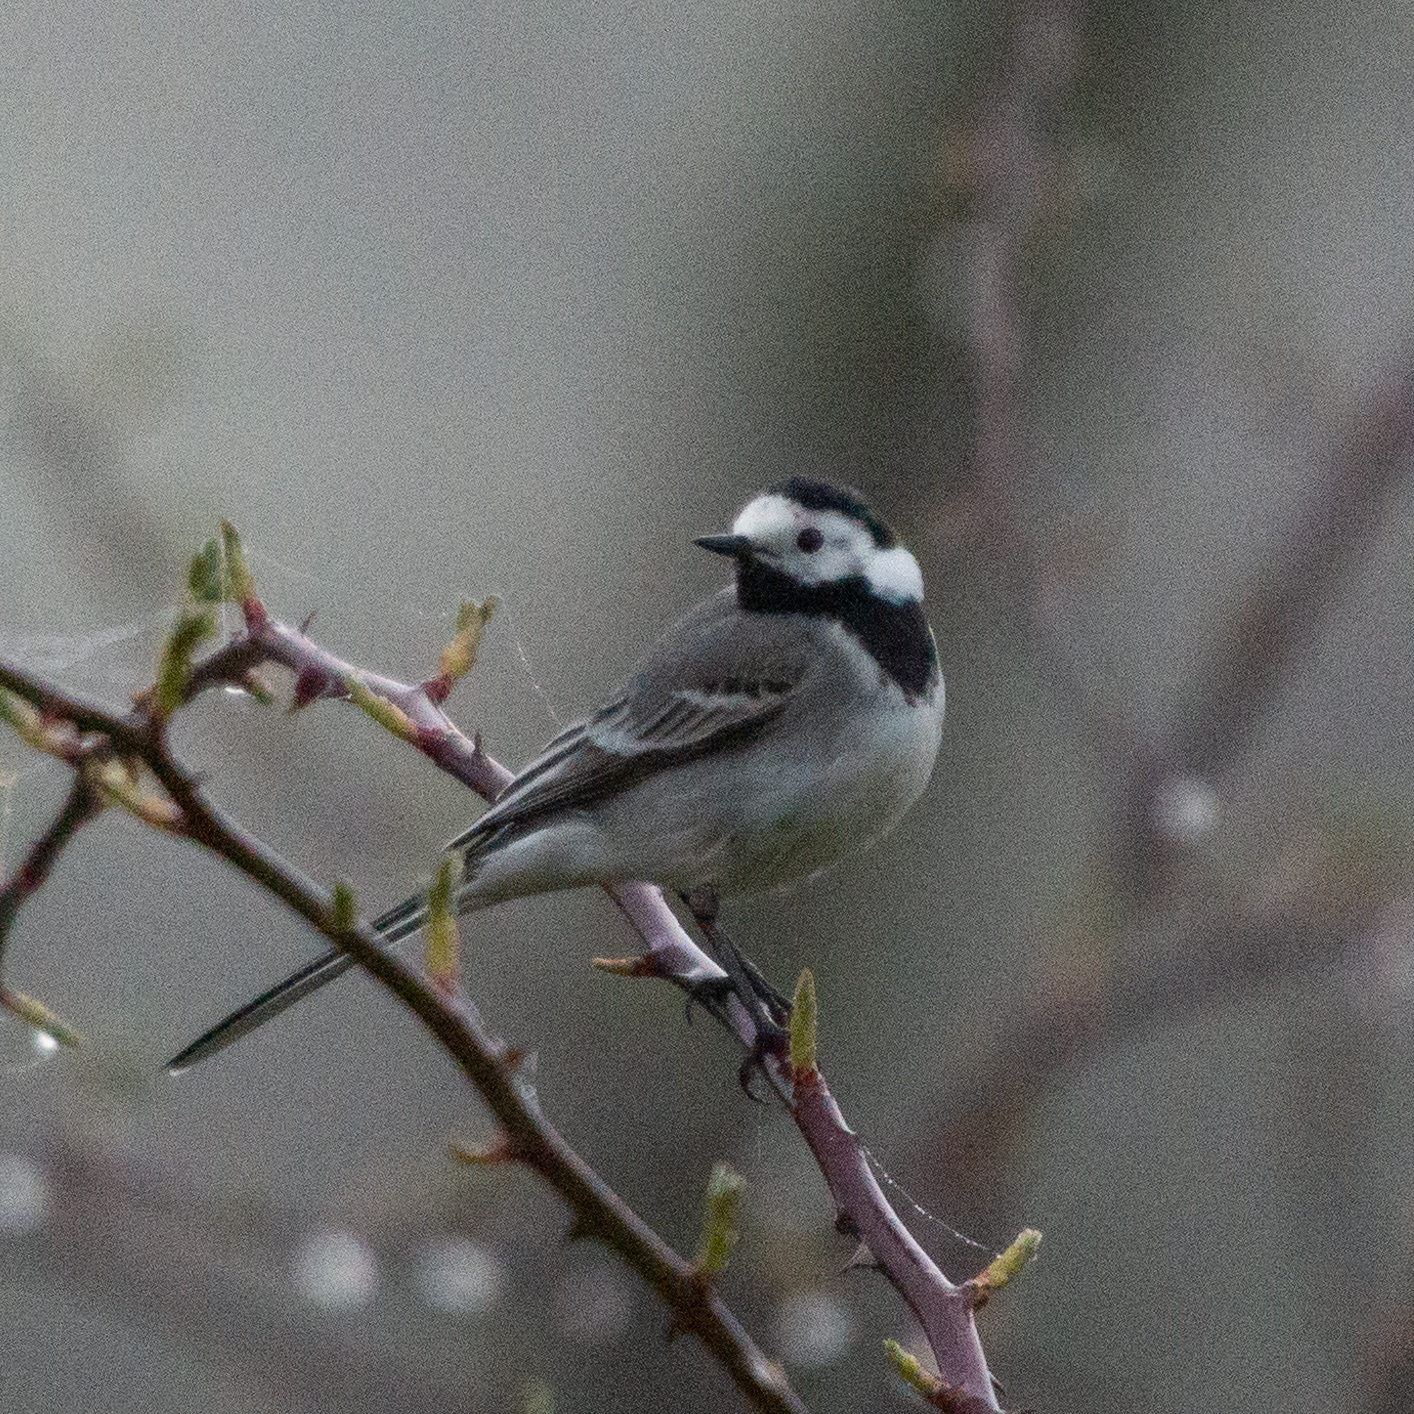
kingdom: Animalia
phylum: Chordata
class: Aves
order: Passeriformes
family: Motacillidae
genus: Motacilla
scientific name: Motacilla alba
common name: White wagtail
